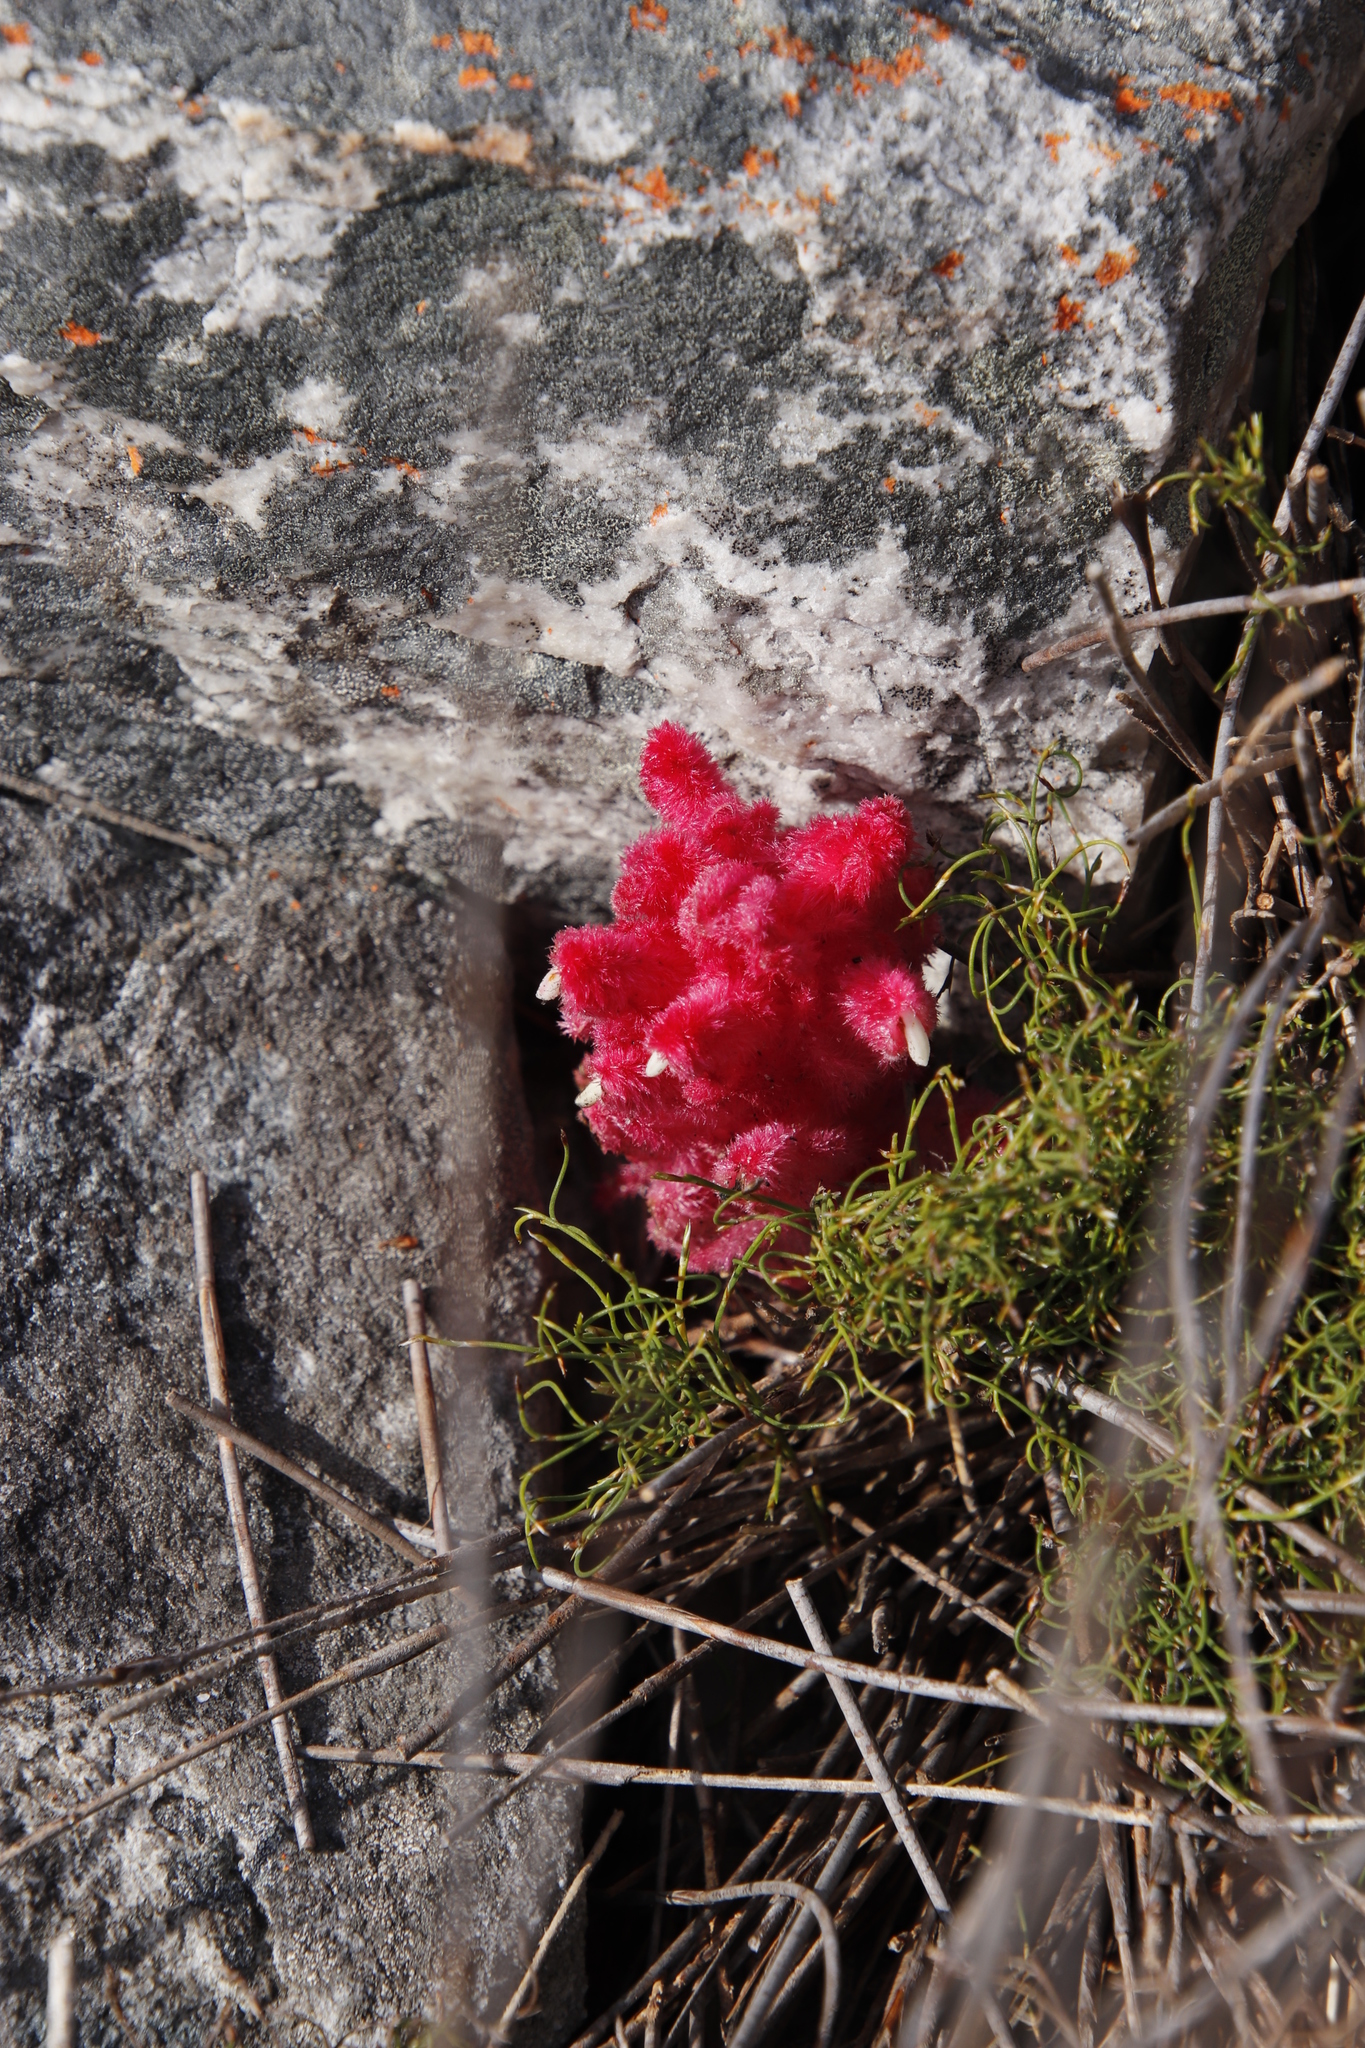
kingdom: Plantae
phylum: Tracheophyta
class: Magnoliopsida
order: Lamiales
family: Orobanchaceae
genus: Hyobanche
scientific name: Hyobanche sanguinea
